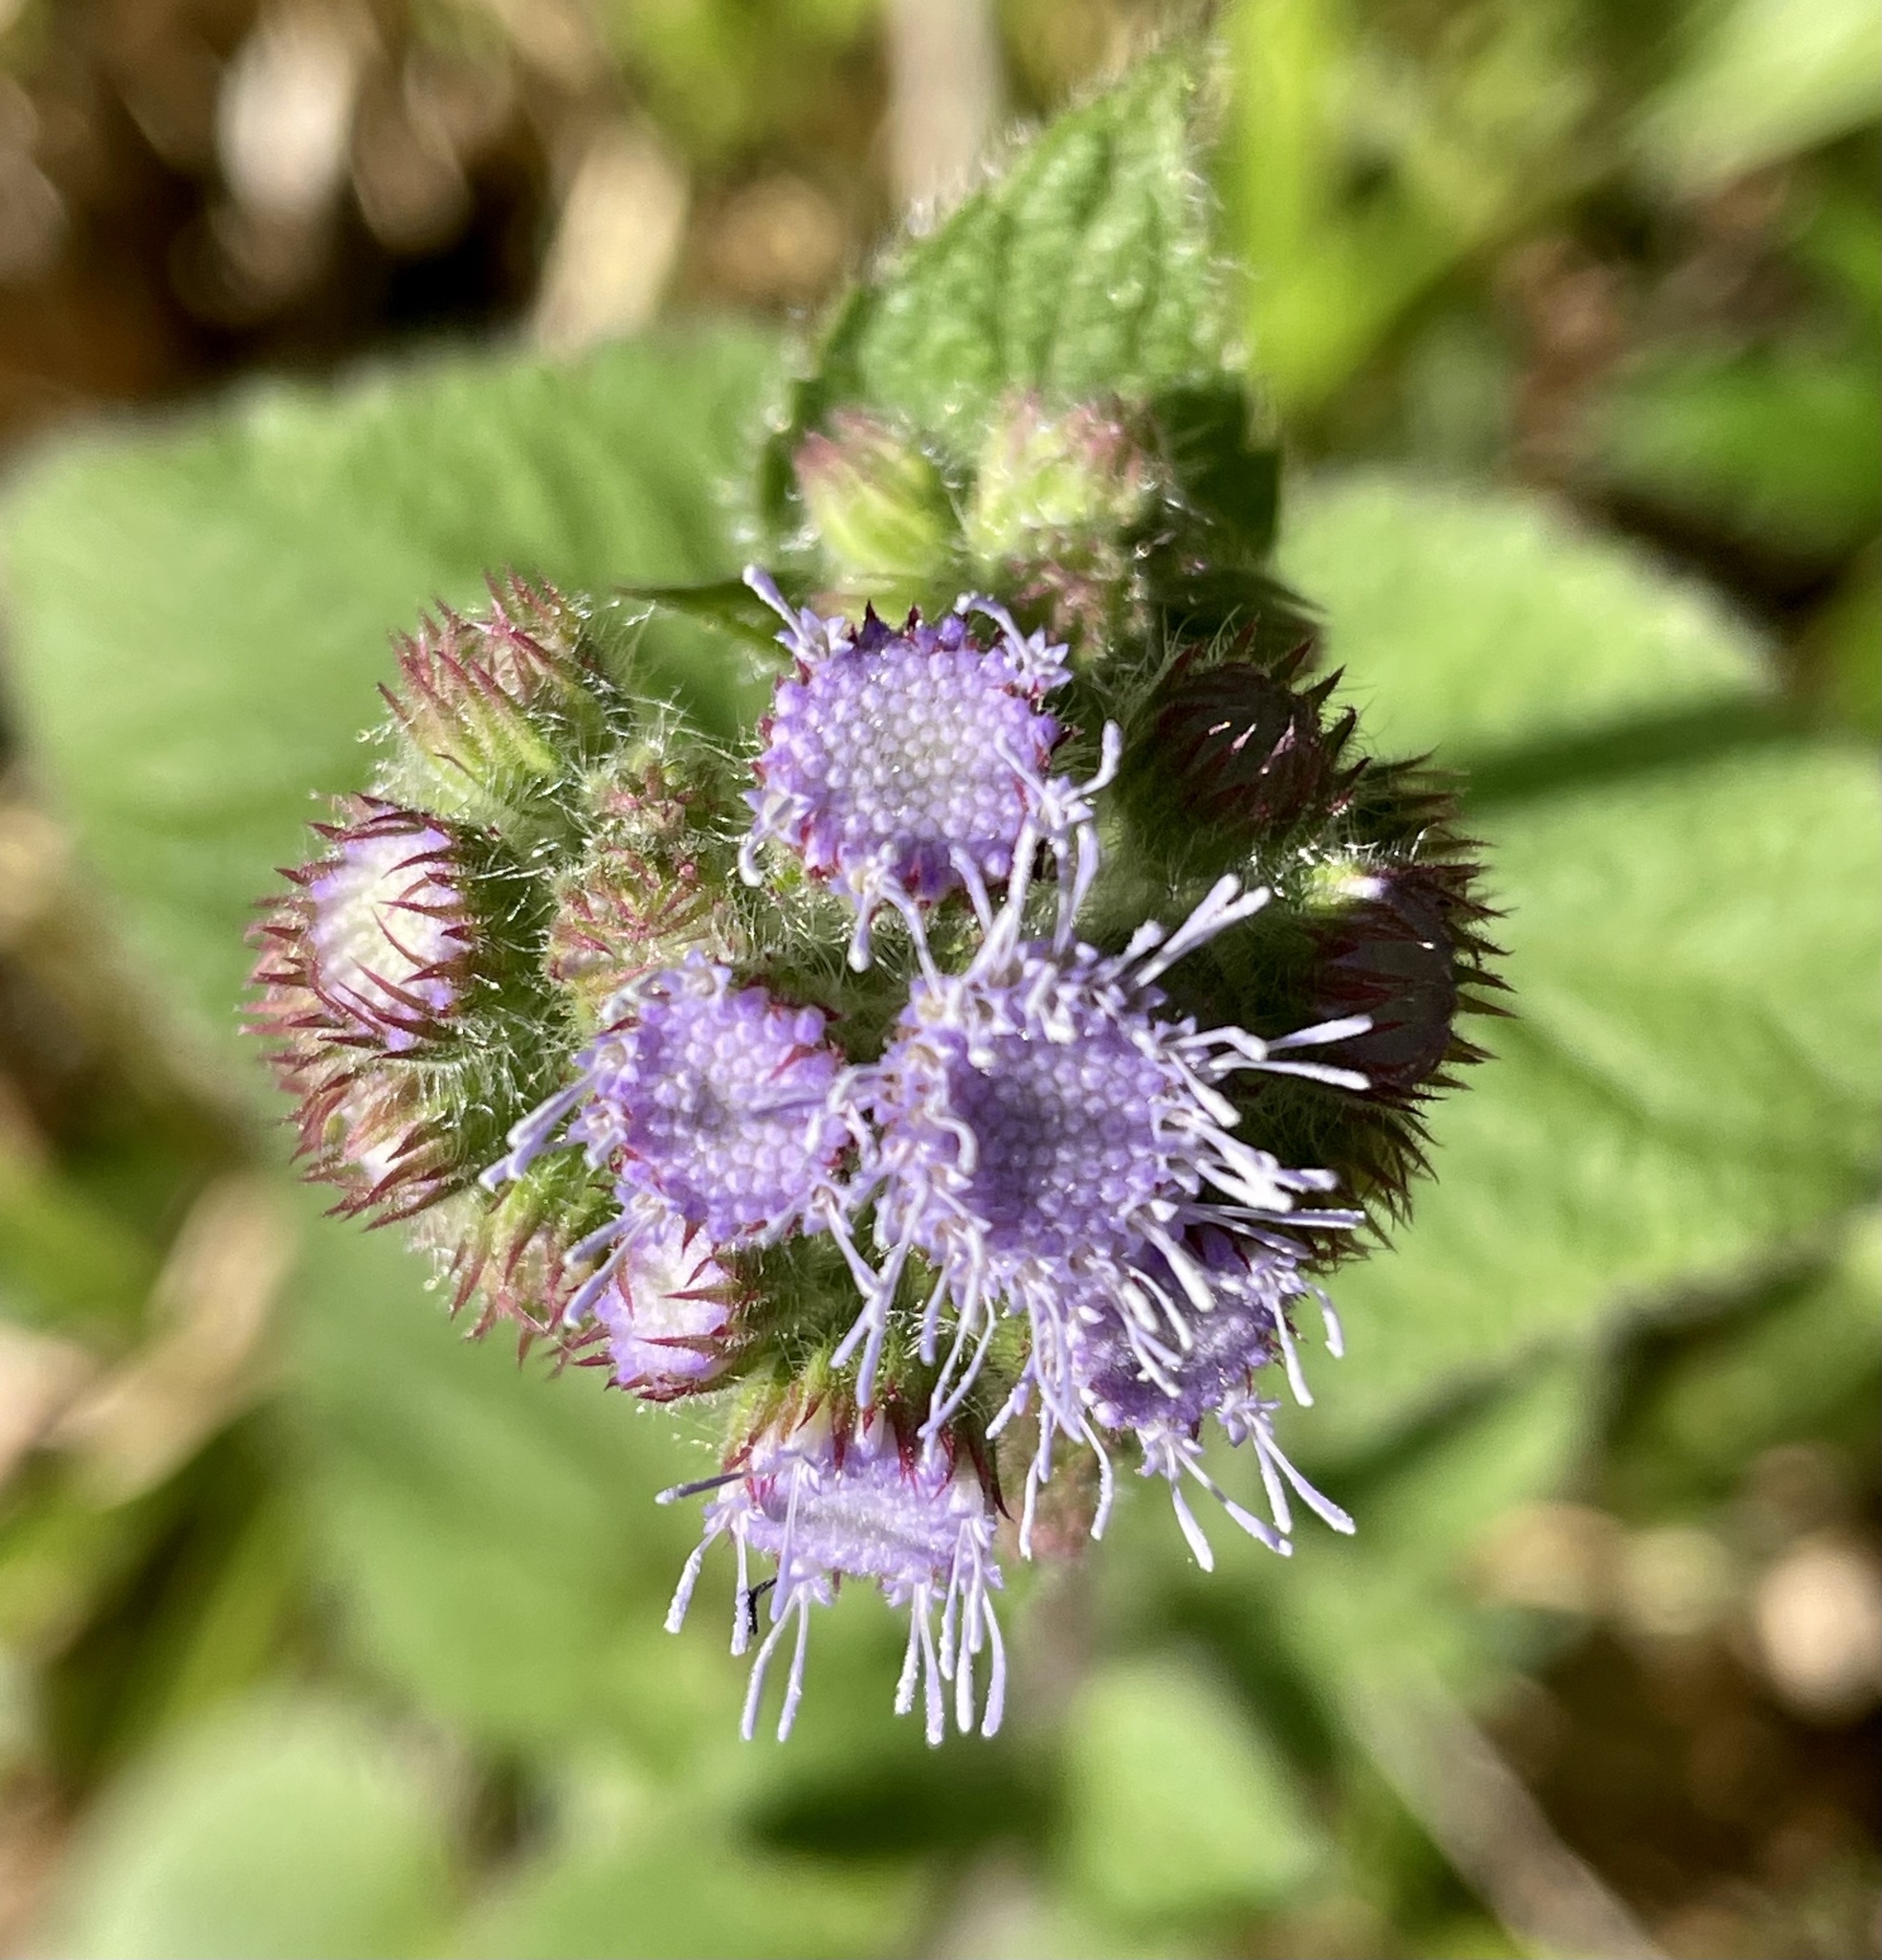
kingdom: Plantae
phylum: Tracheophyta
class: Magnoliopsida
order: Asterales
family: Asteraceae
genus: Ageratum
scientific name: Ageratum houstonianum
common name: Bluemink
